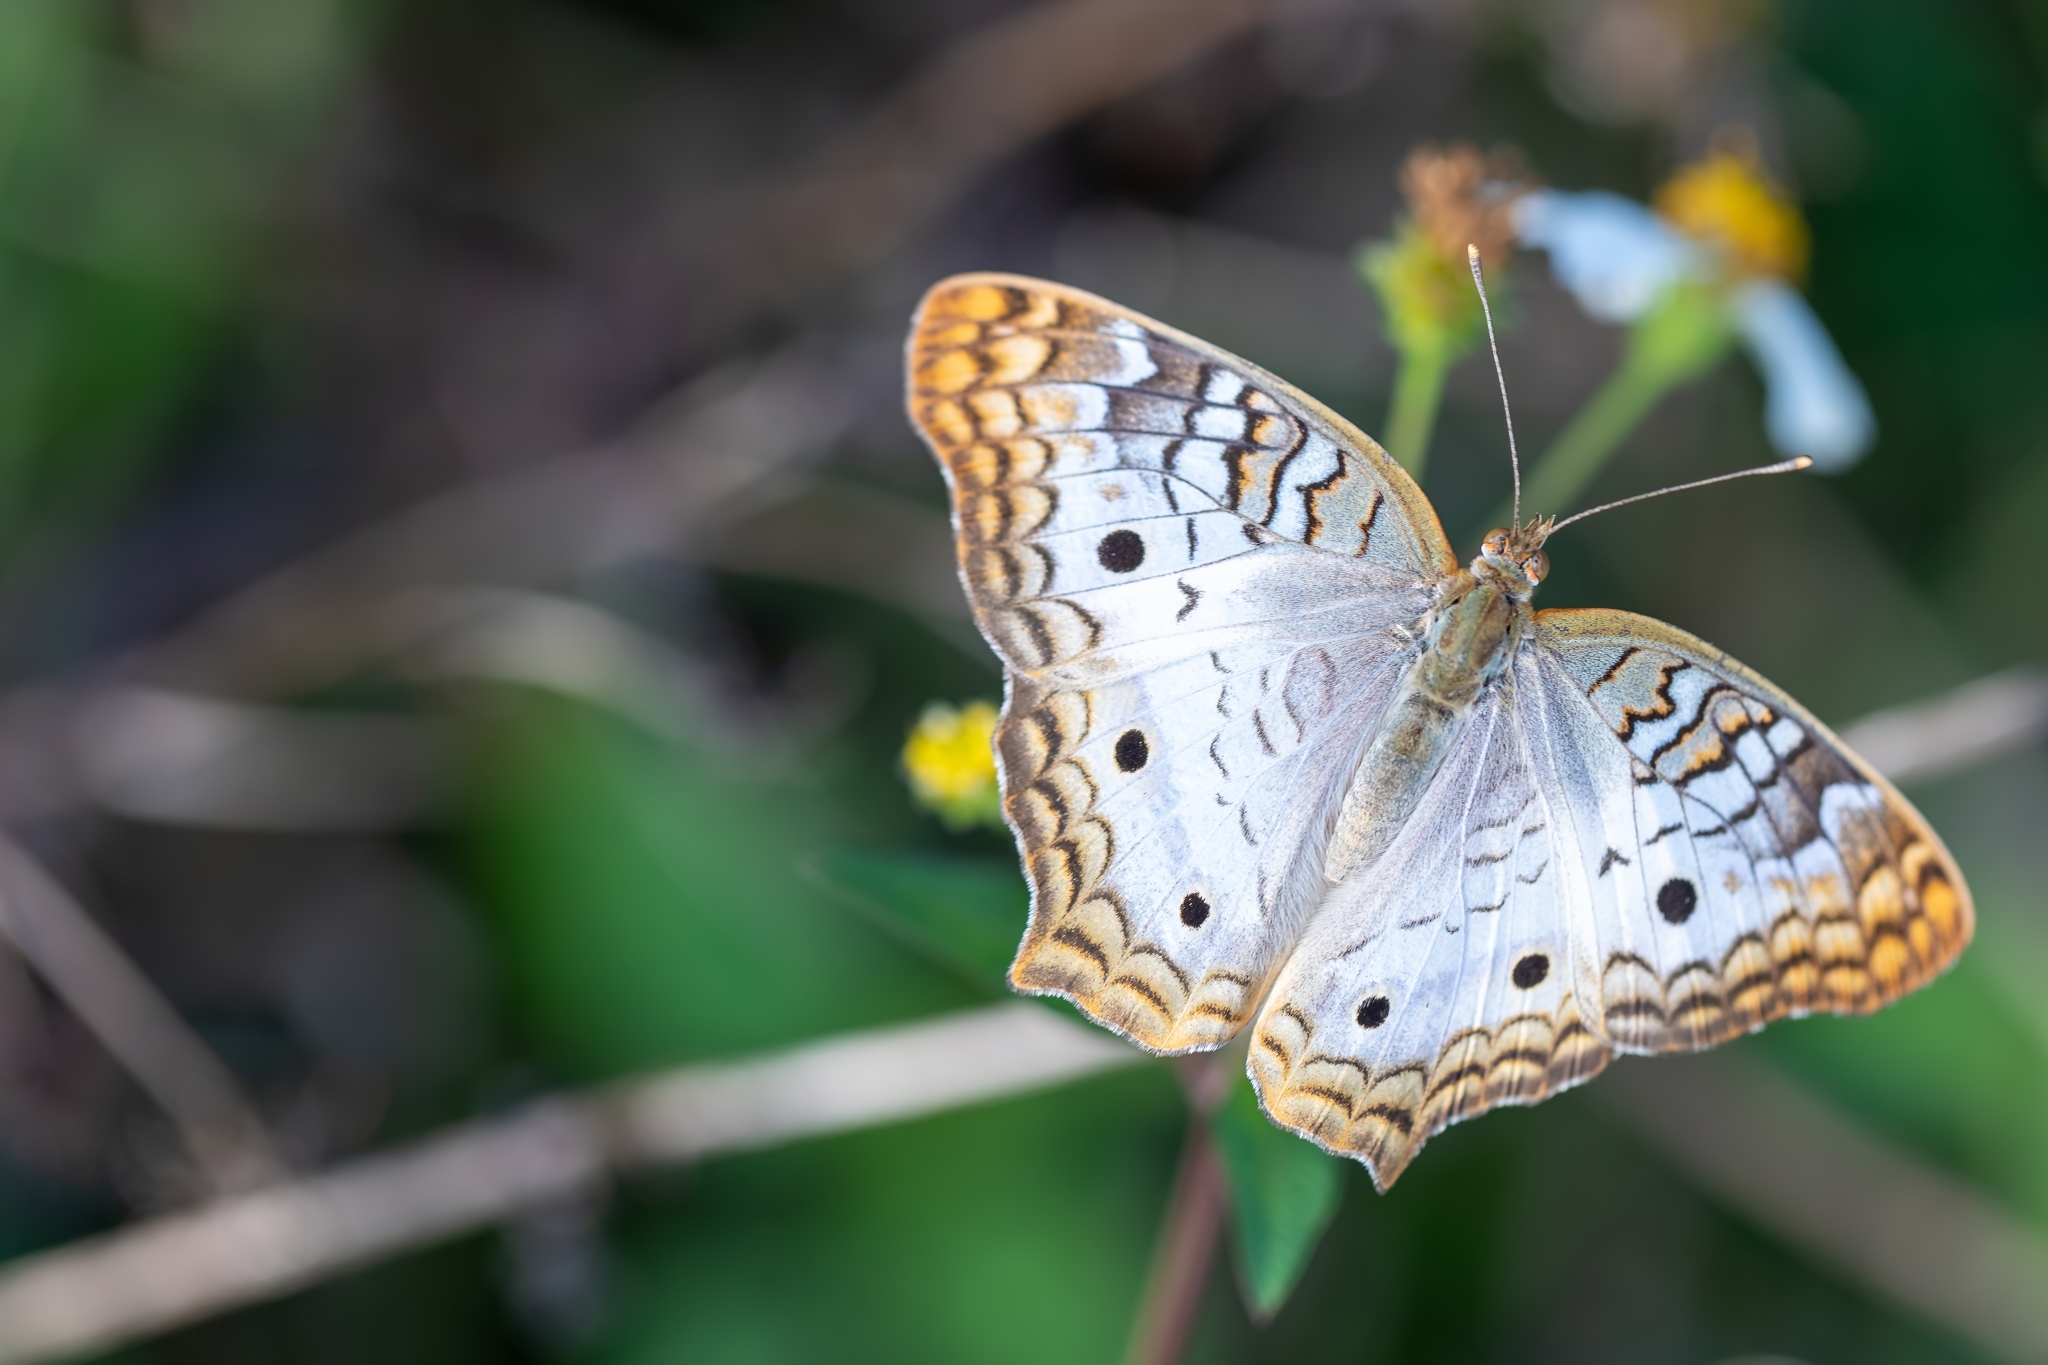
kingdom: Animalia
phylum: Arthropoda
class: Insecta
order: Lepidoptera
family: Nymphalidae
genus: Anartia
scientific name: Anartia jatrophae
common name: White peacock
